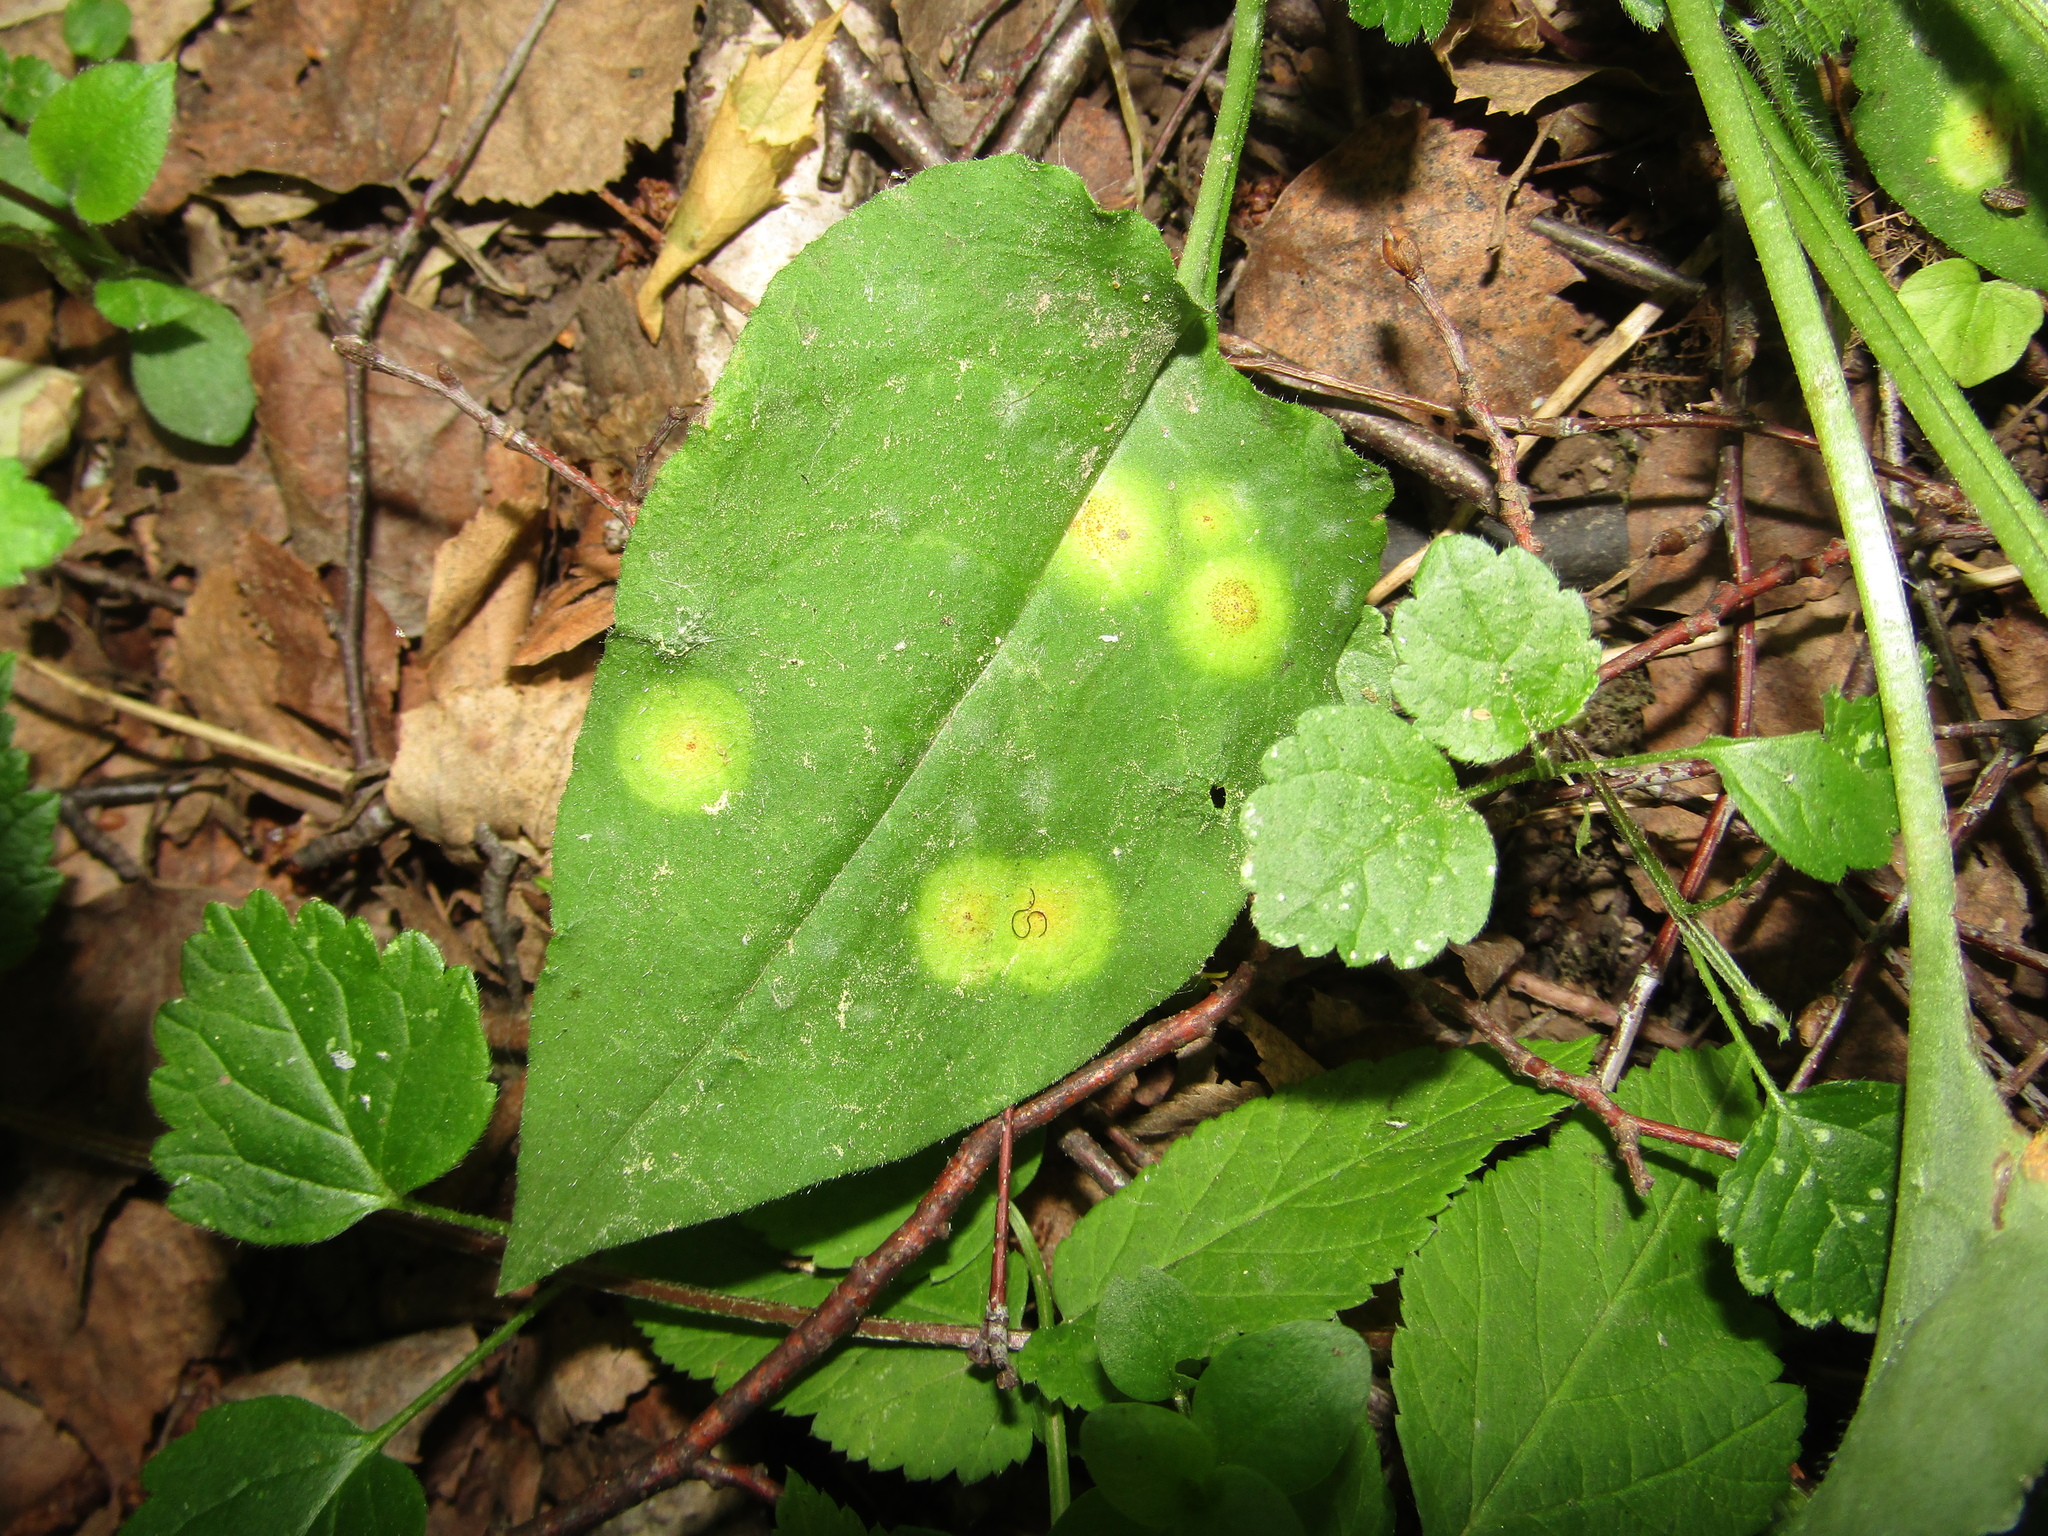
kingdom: Fungi
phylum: Basidiomycota
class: Pucciniomycetes
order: Pucciniales
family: Pucciniaceae
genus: Puccinia
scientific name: Puccinia bromina
